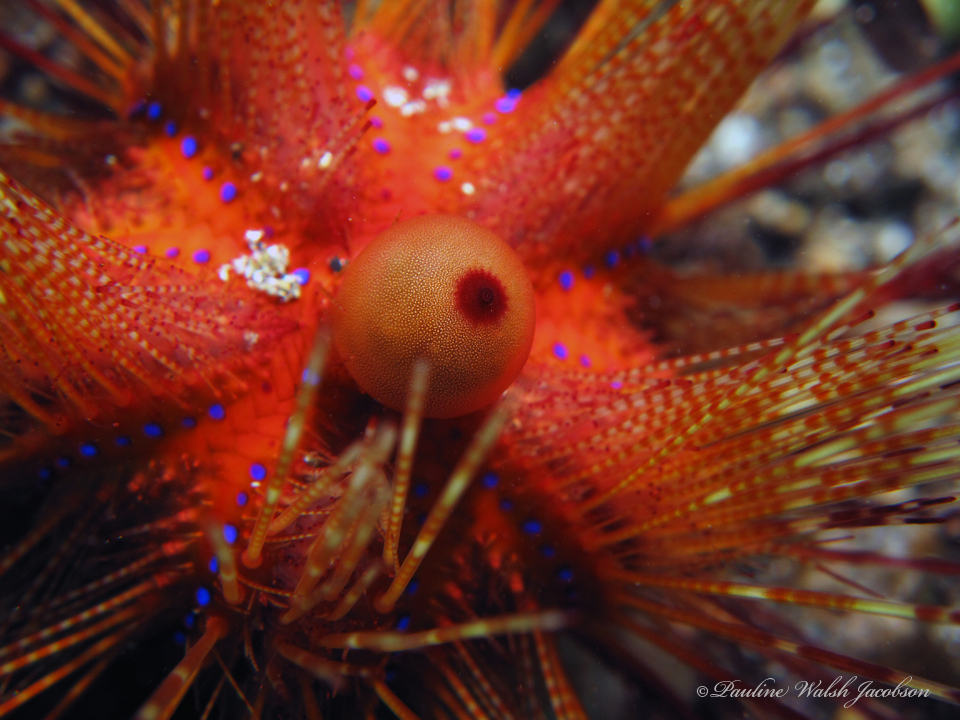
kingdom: Animalia
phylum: Echinodermata
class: Echinoidea
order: Diadematoida
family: Diadematidae
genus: Astropyga
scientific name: Astropyga radiata
